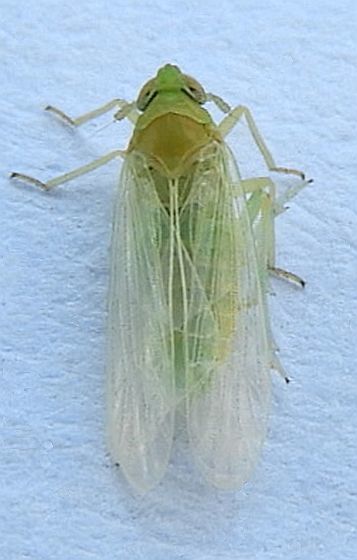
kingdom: Animalia
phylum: Arthropoda
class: Insecta
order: Hemiptera
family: Delphacidae
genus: Chloriona
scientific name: Chloriona sicula
